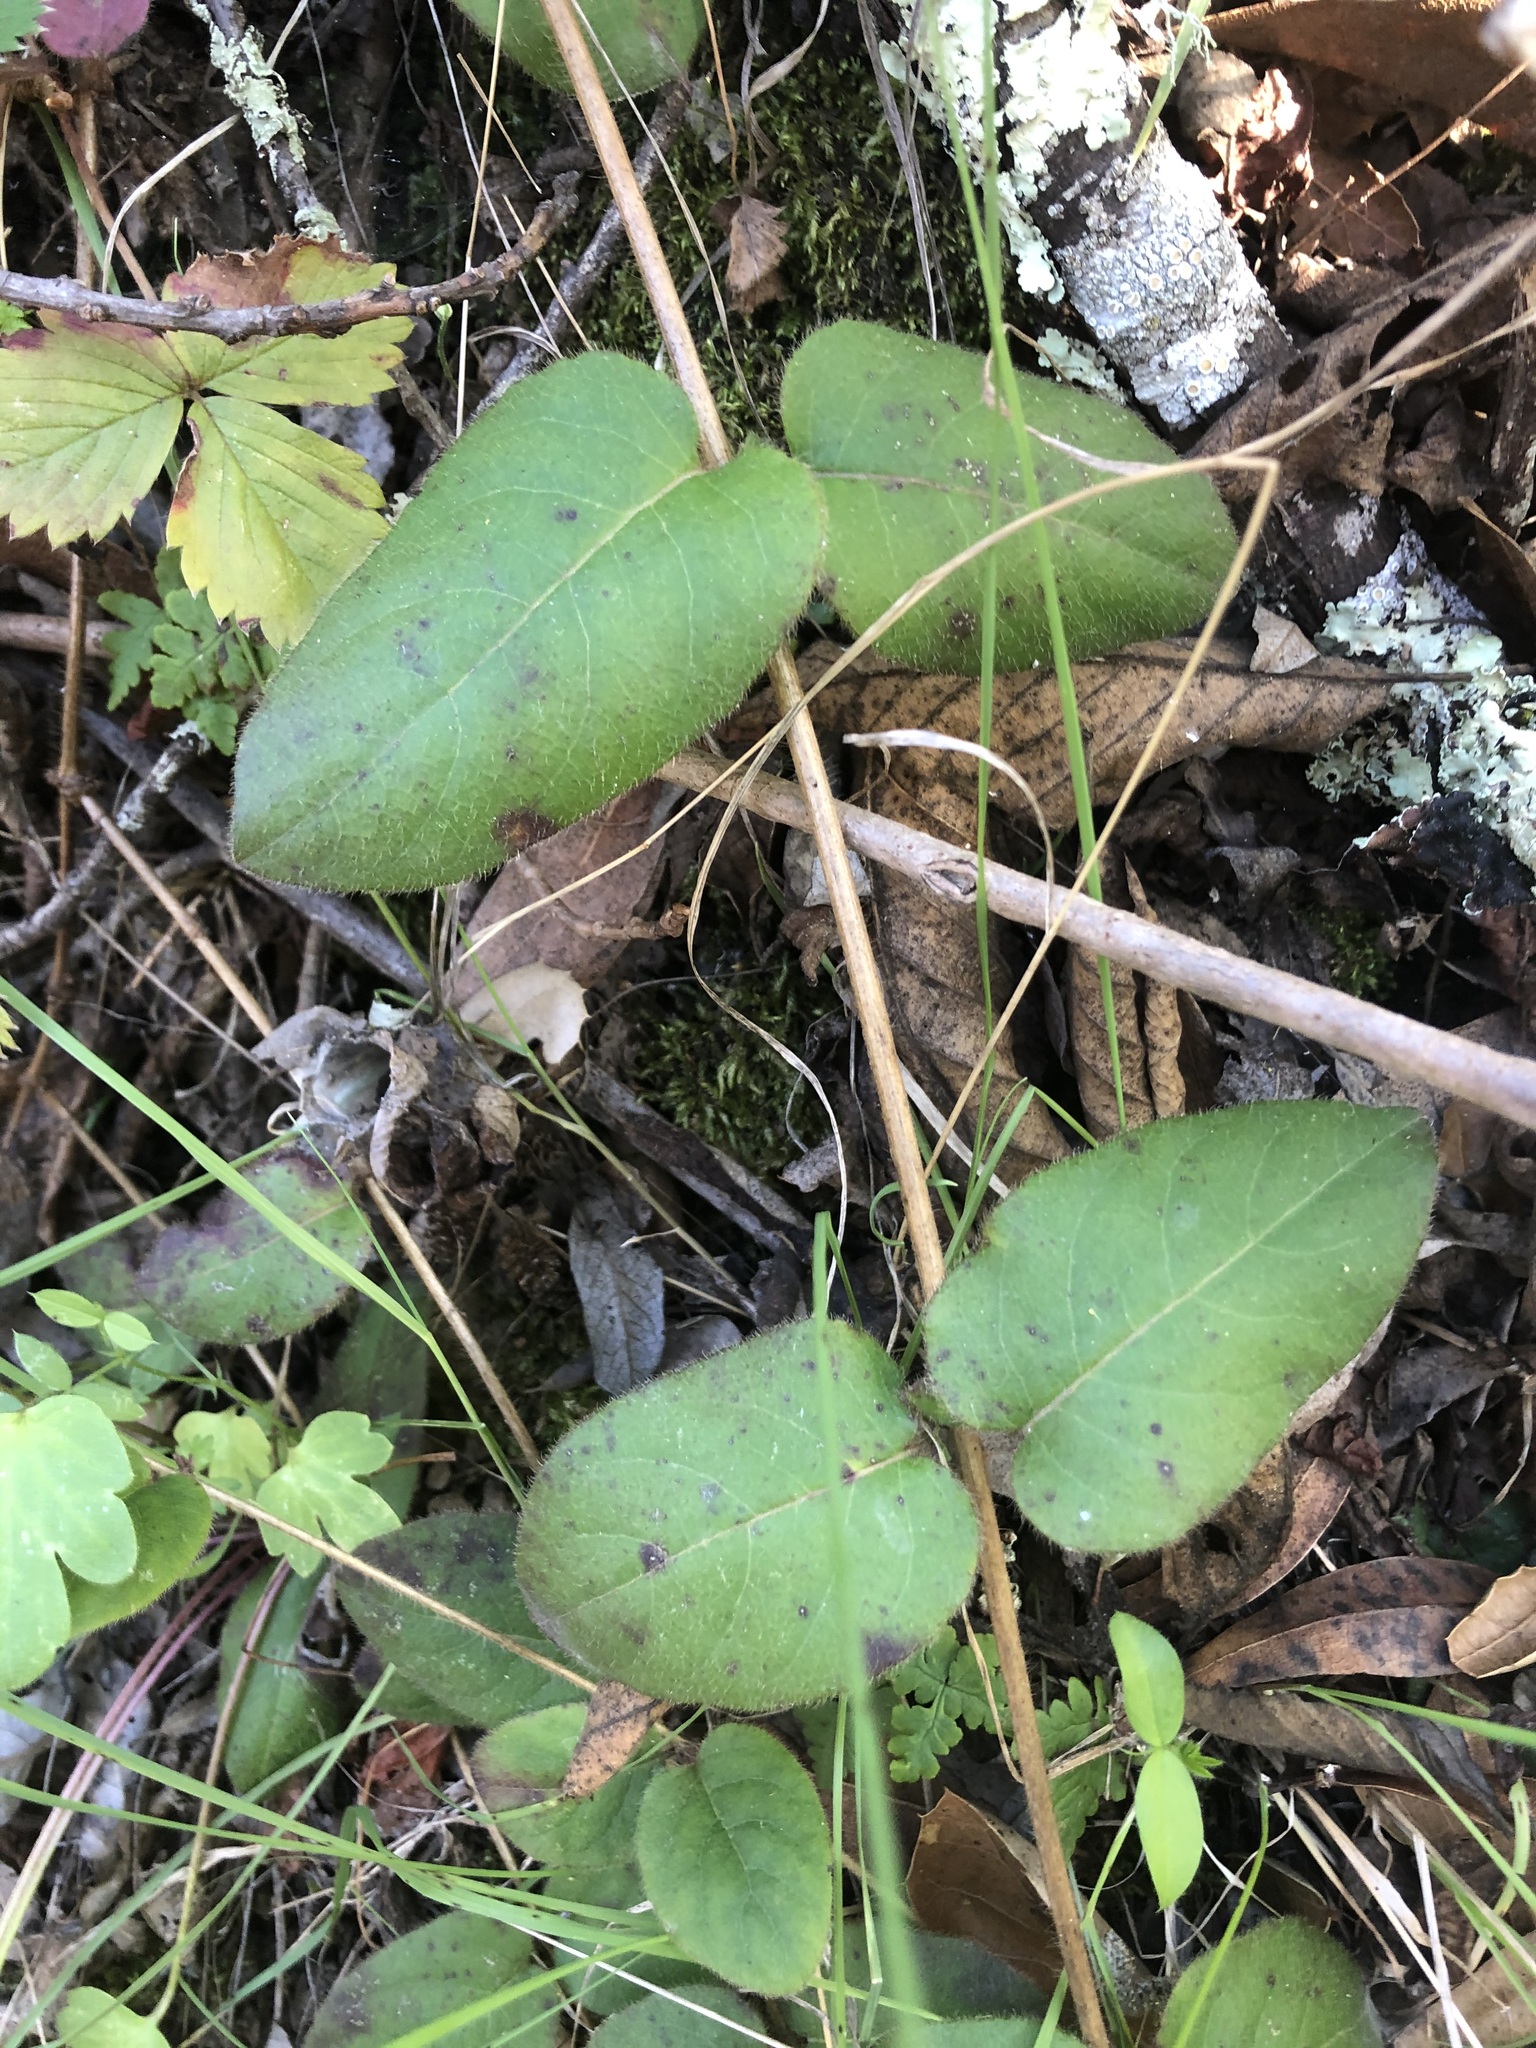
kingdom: Plantae
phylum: Tracheophyta
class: Magnoliopsida
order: Dipsacales
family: Caprifoliaceae
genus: Lonicera
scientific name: Lonicera hispidula
